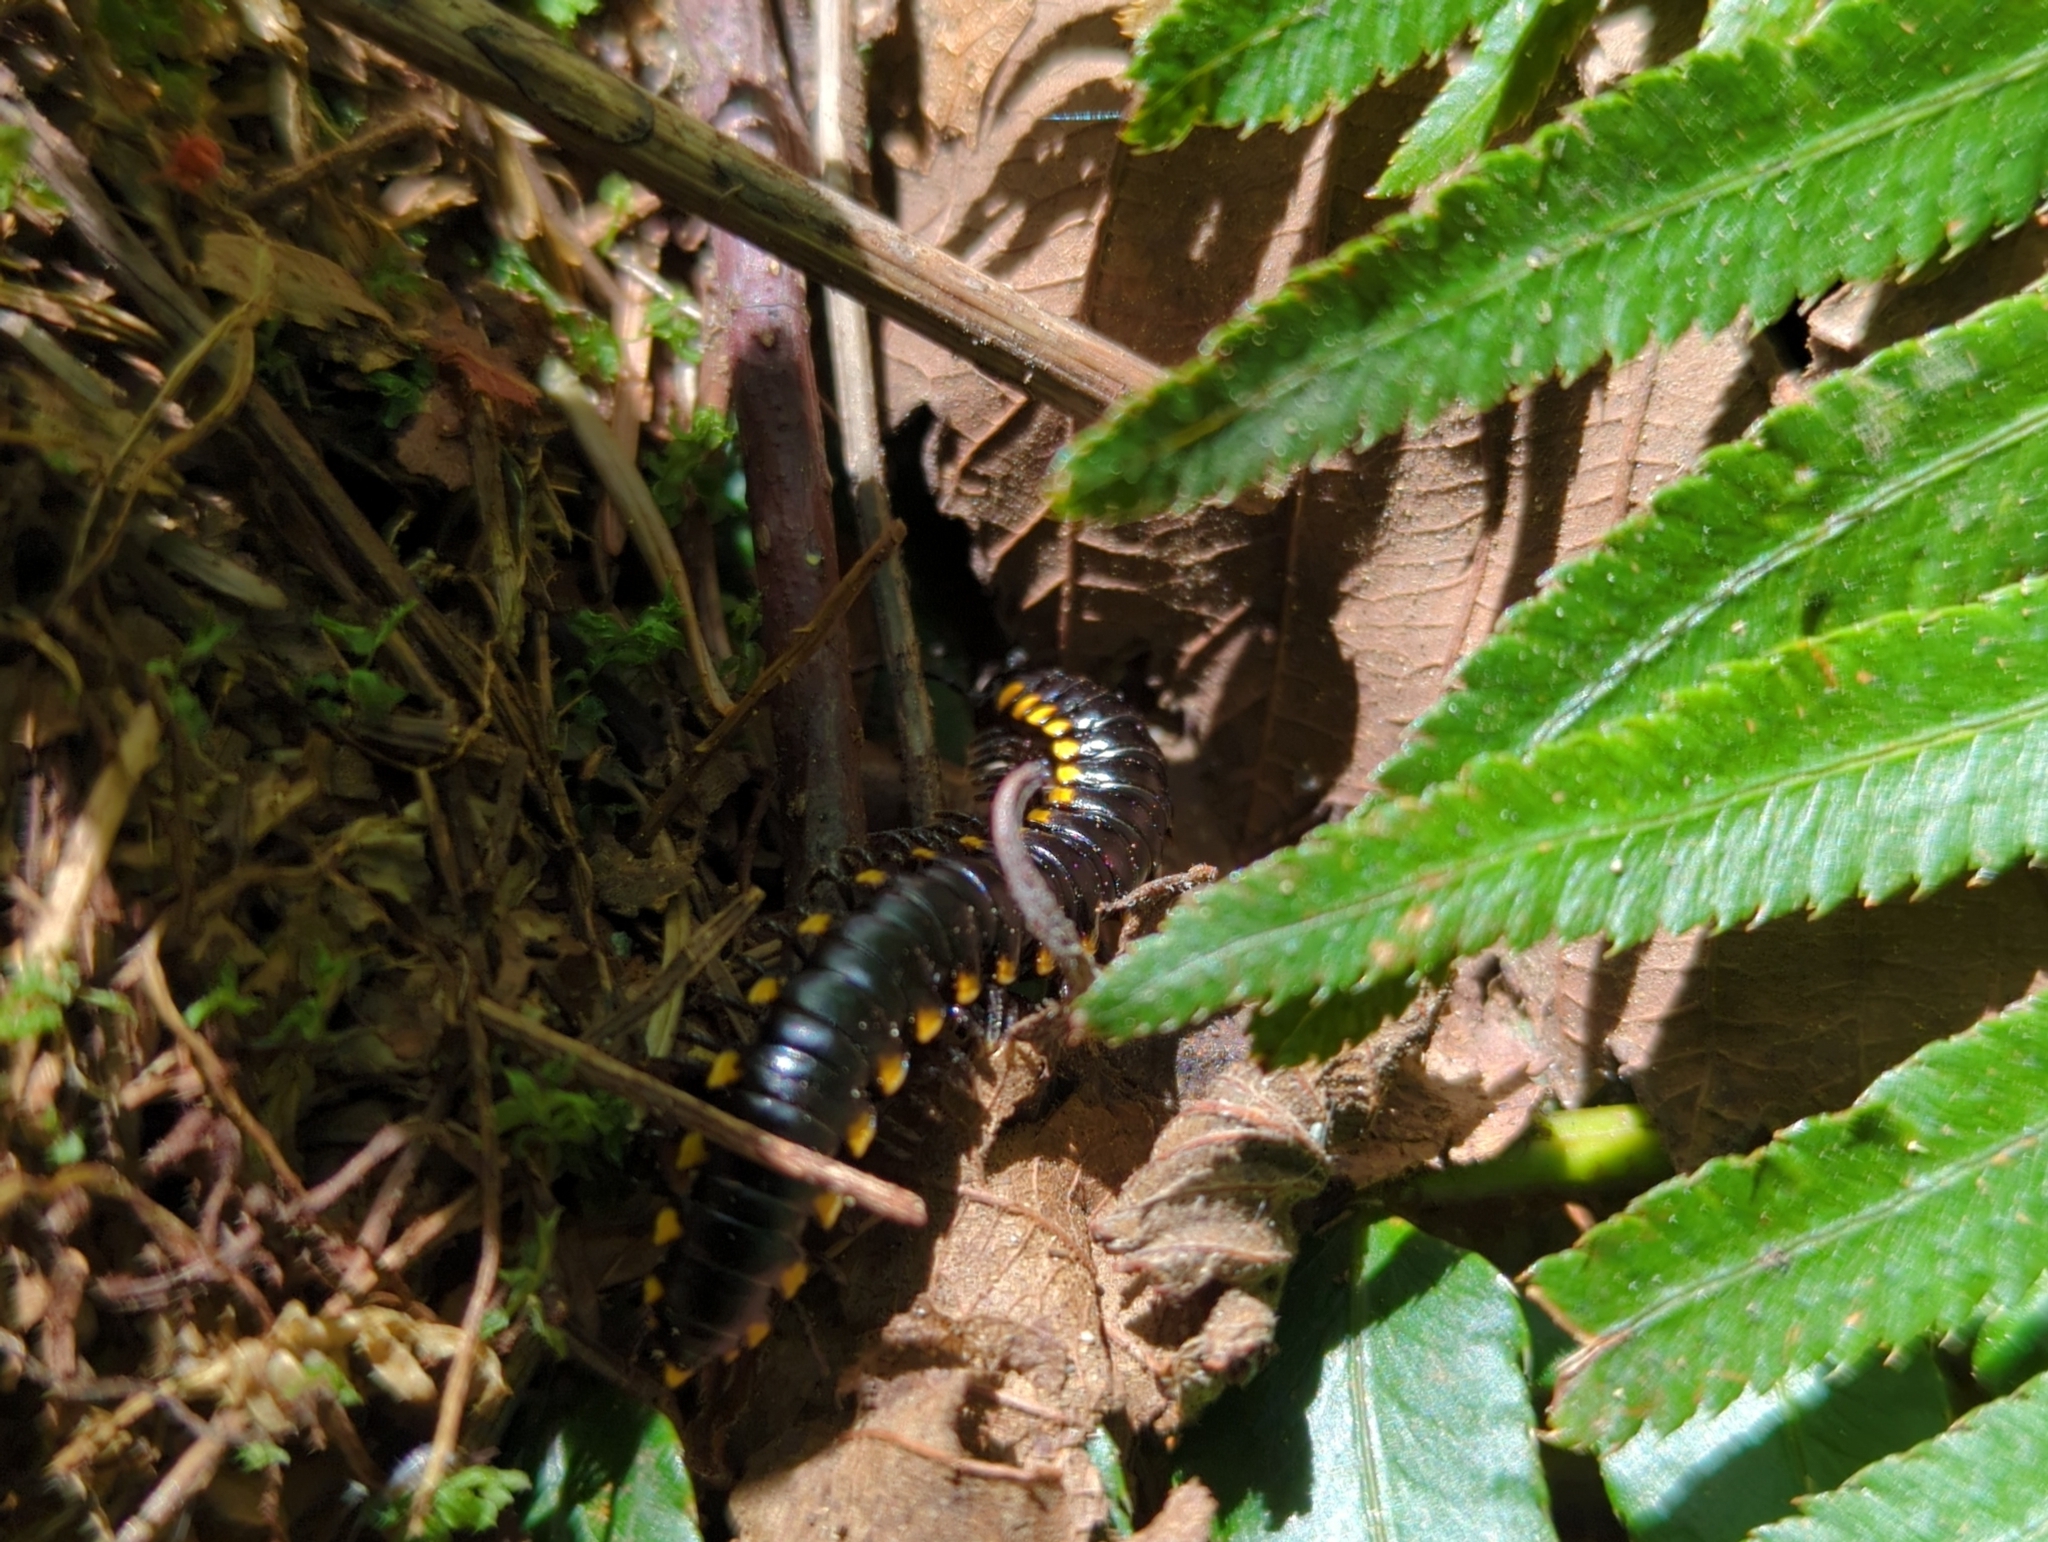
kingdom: Animalia
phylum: Arthropoda
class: Diplopoda
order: Polydesmida
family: Xystodesmidae
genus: Harpaphe
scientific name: Harpaphe haydeniana
